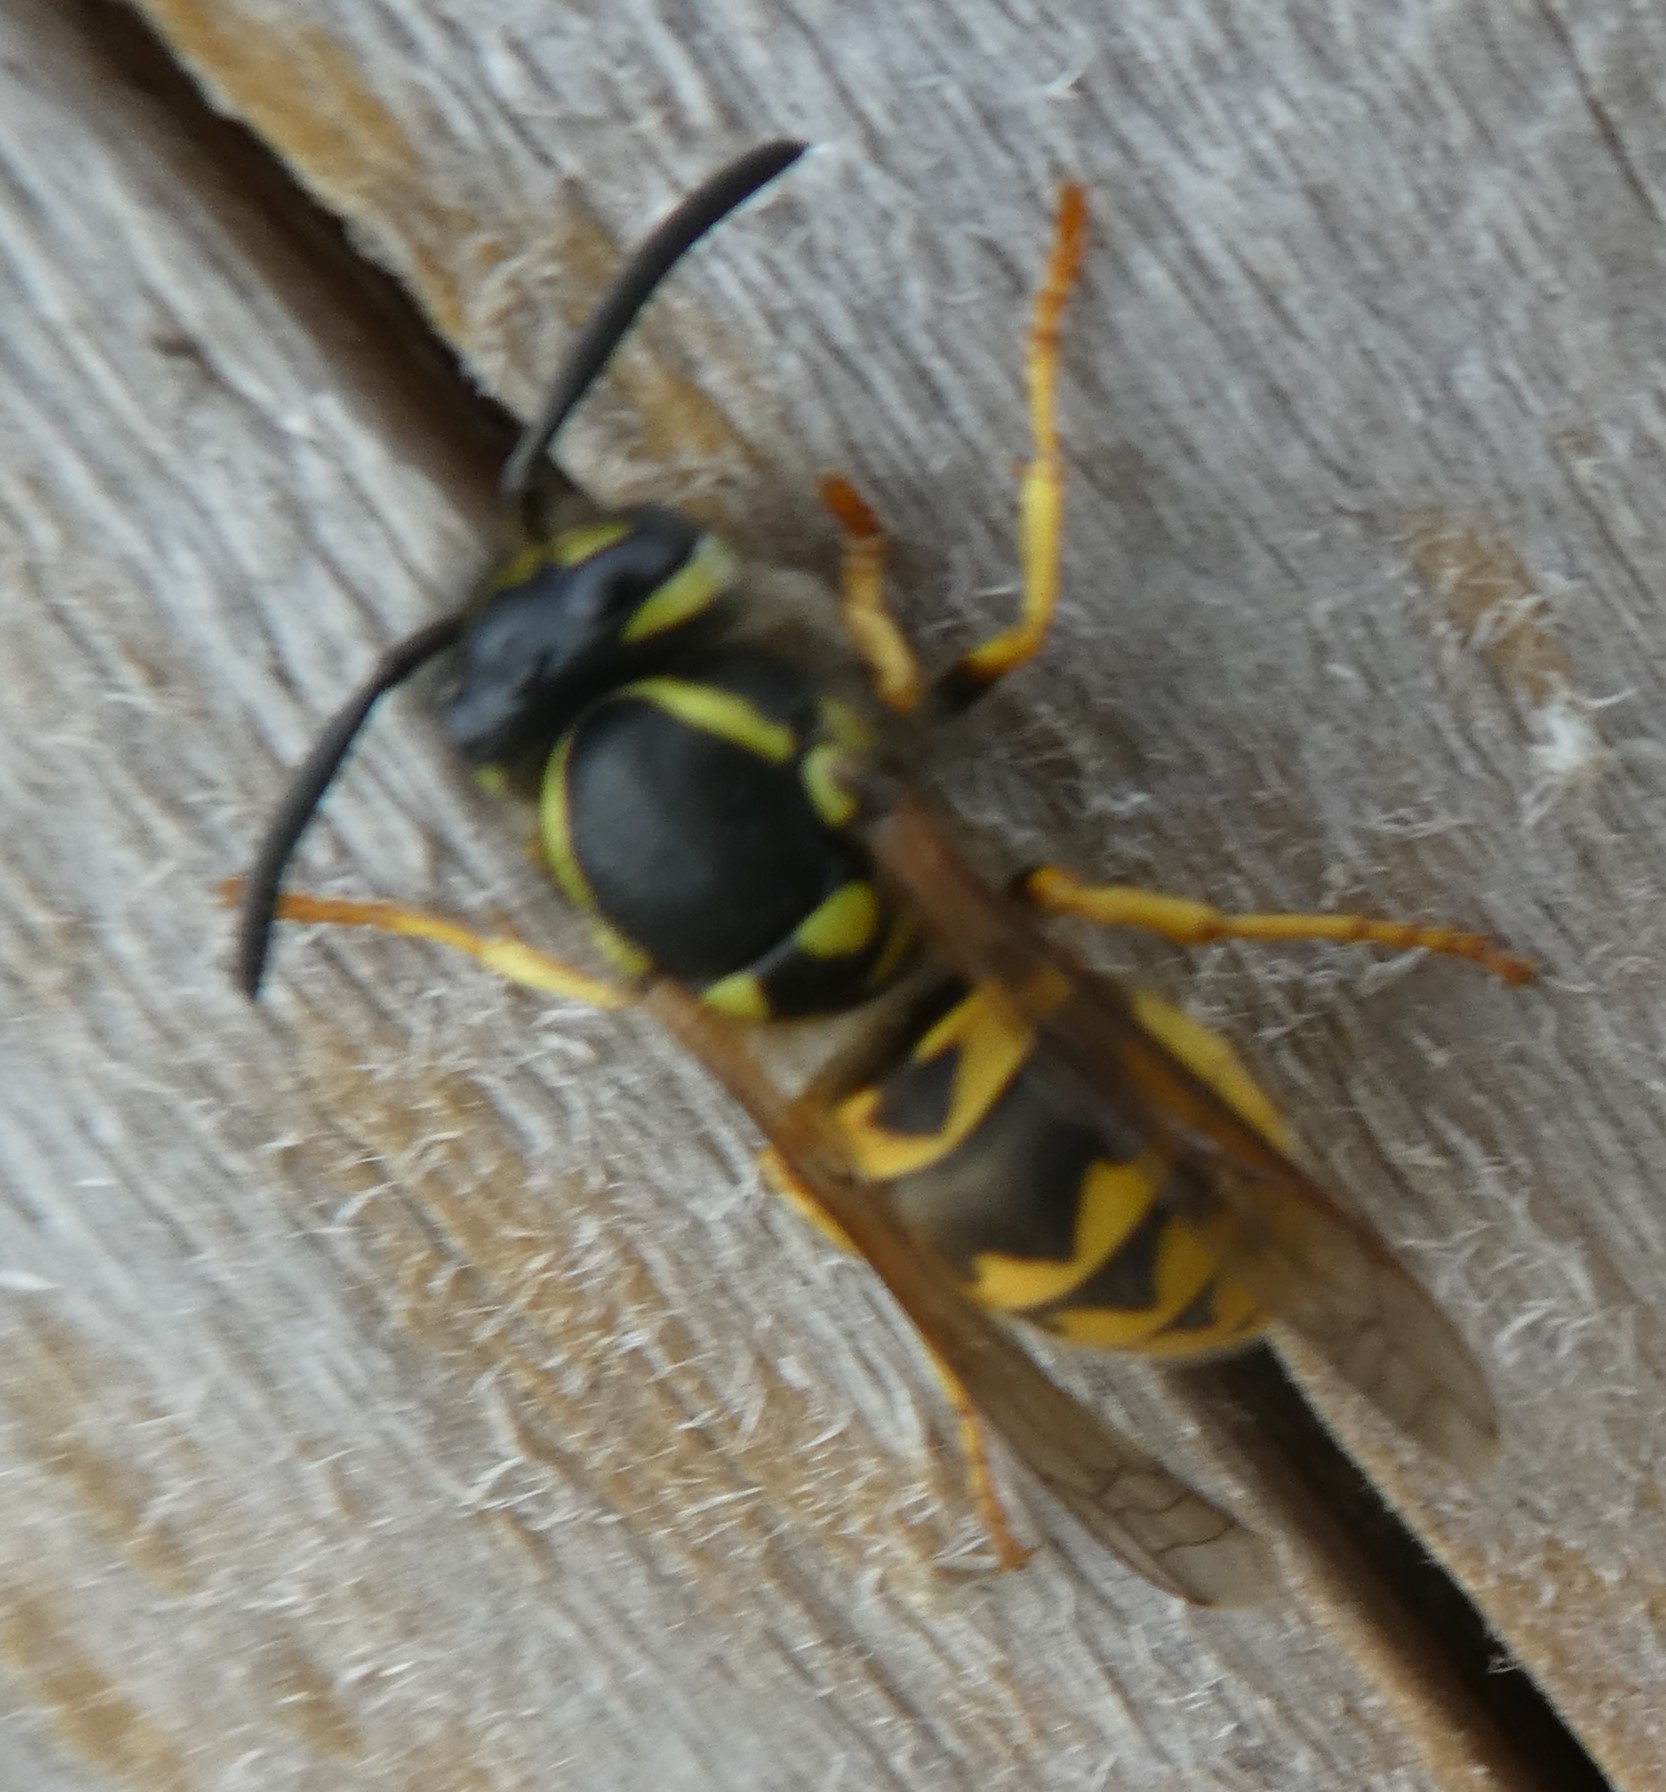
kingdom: Animalia
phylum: Arthropoda
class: Insecta
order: Hymenoptera
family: Vespidae
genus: Vespula
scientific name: Vespula germanica
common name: German wasp
